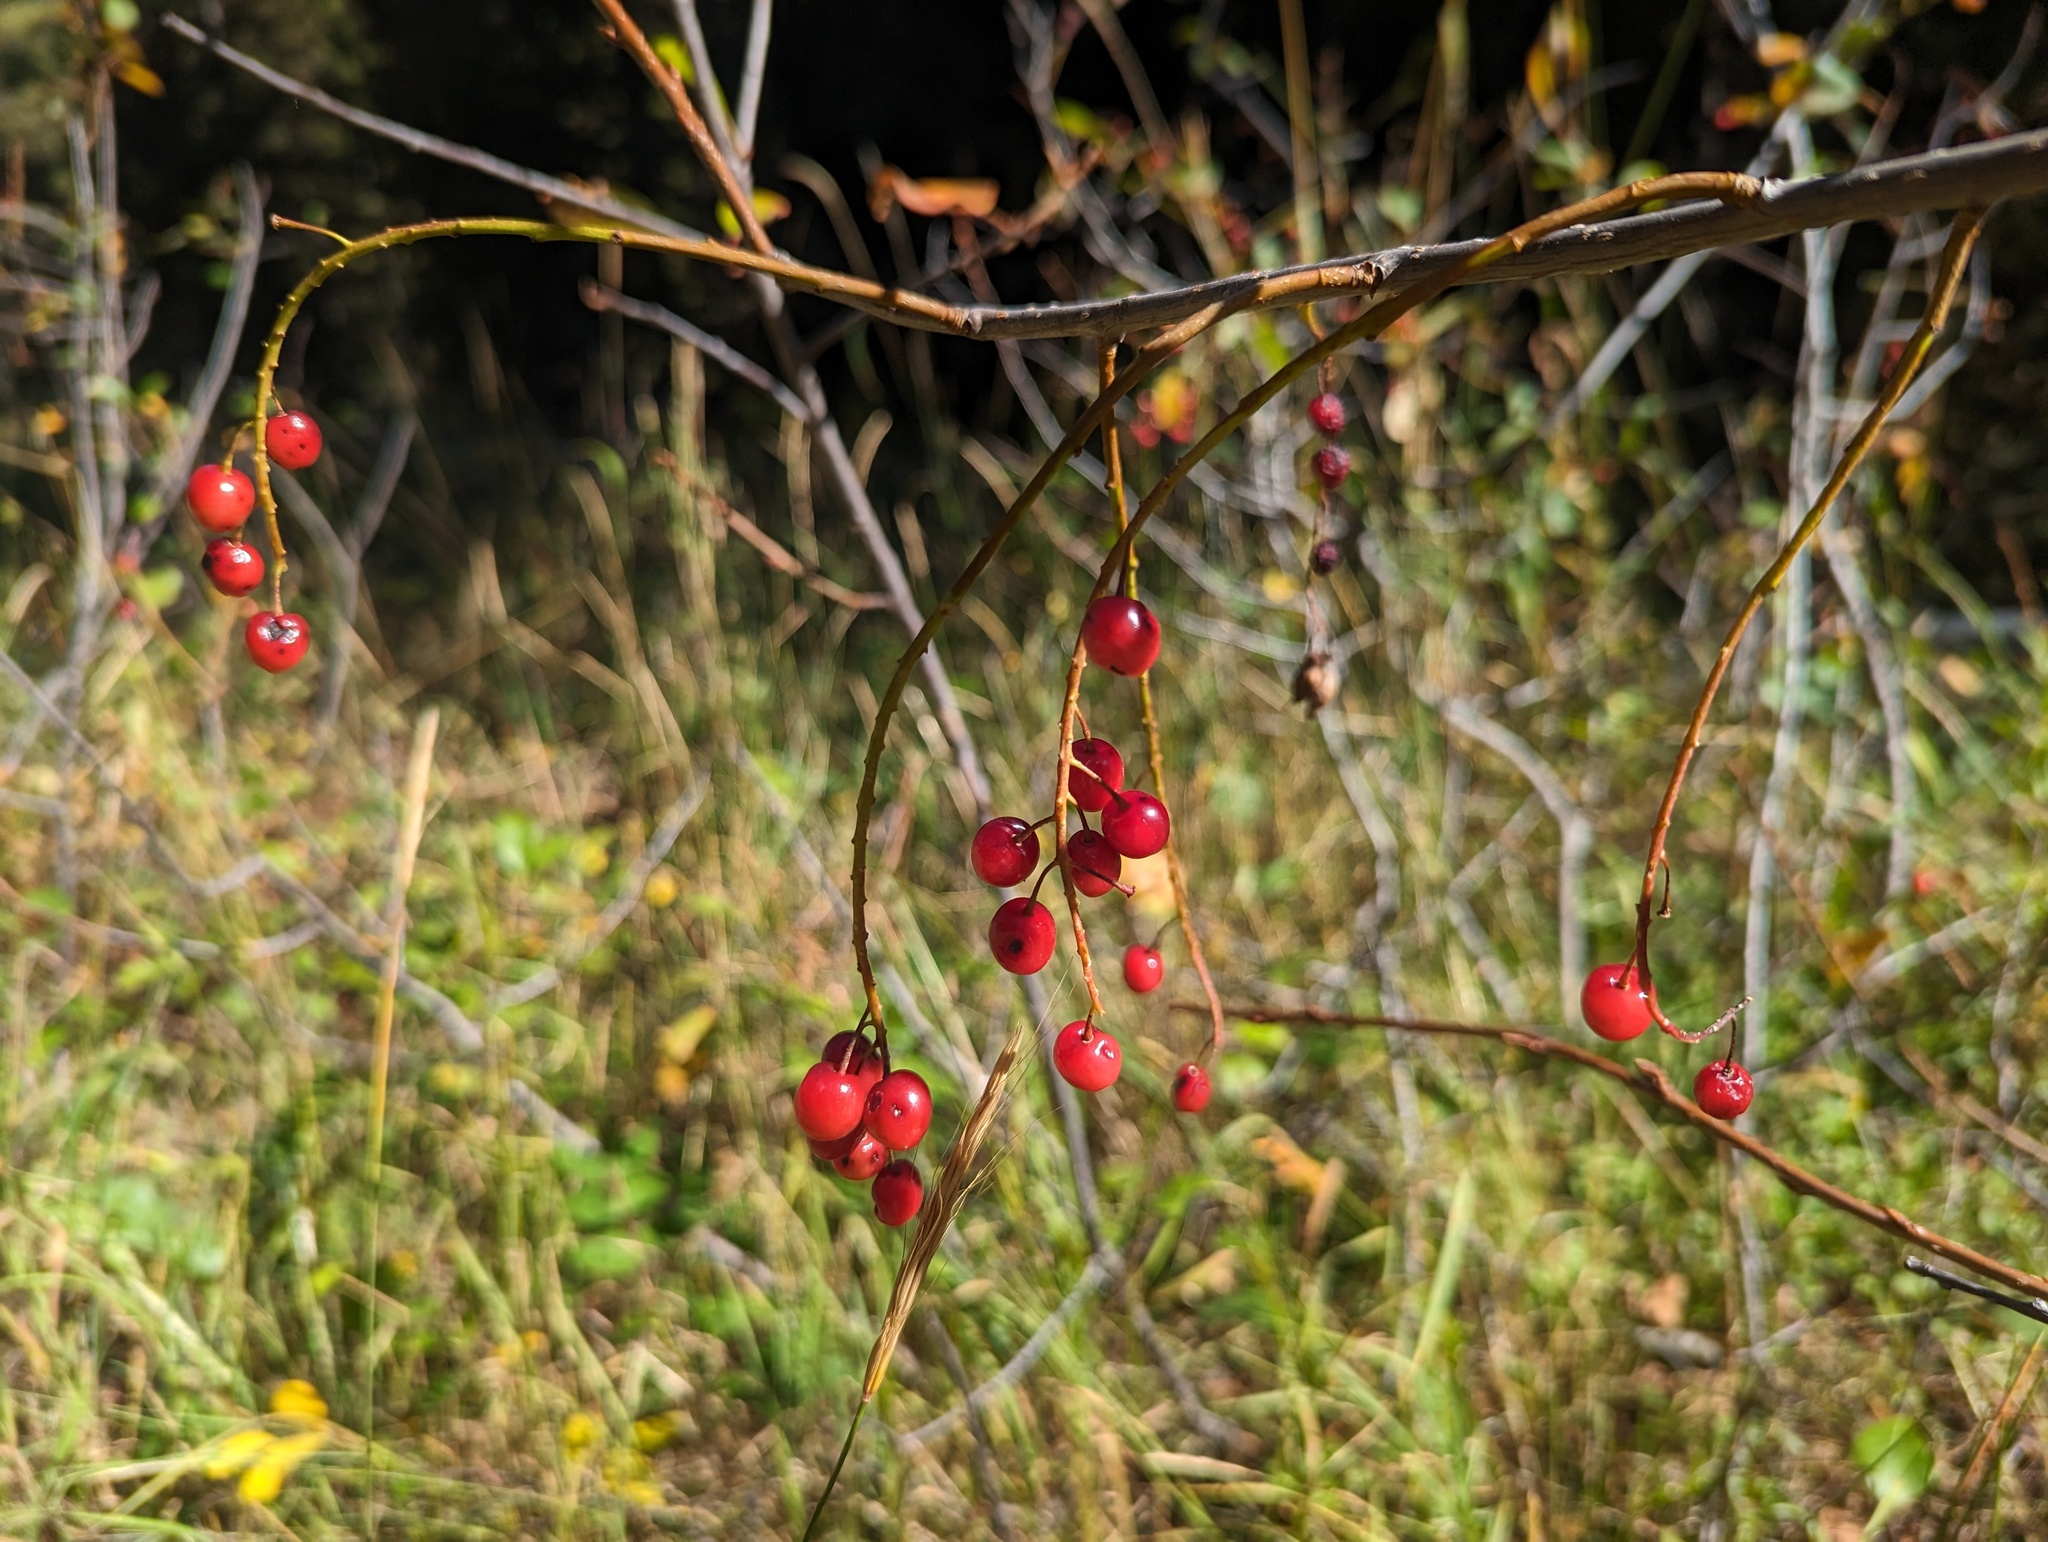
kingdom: Plantae
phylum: Tracheophyta
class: Magnoliopsida
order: Rosales
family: Rosaceae
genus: Prunus
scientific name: Prunus virginiana
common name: Chokecherry
